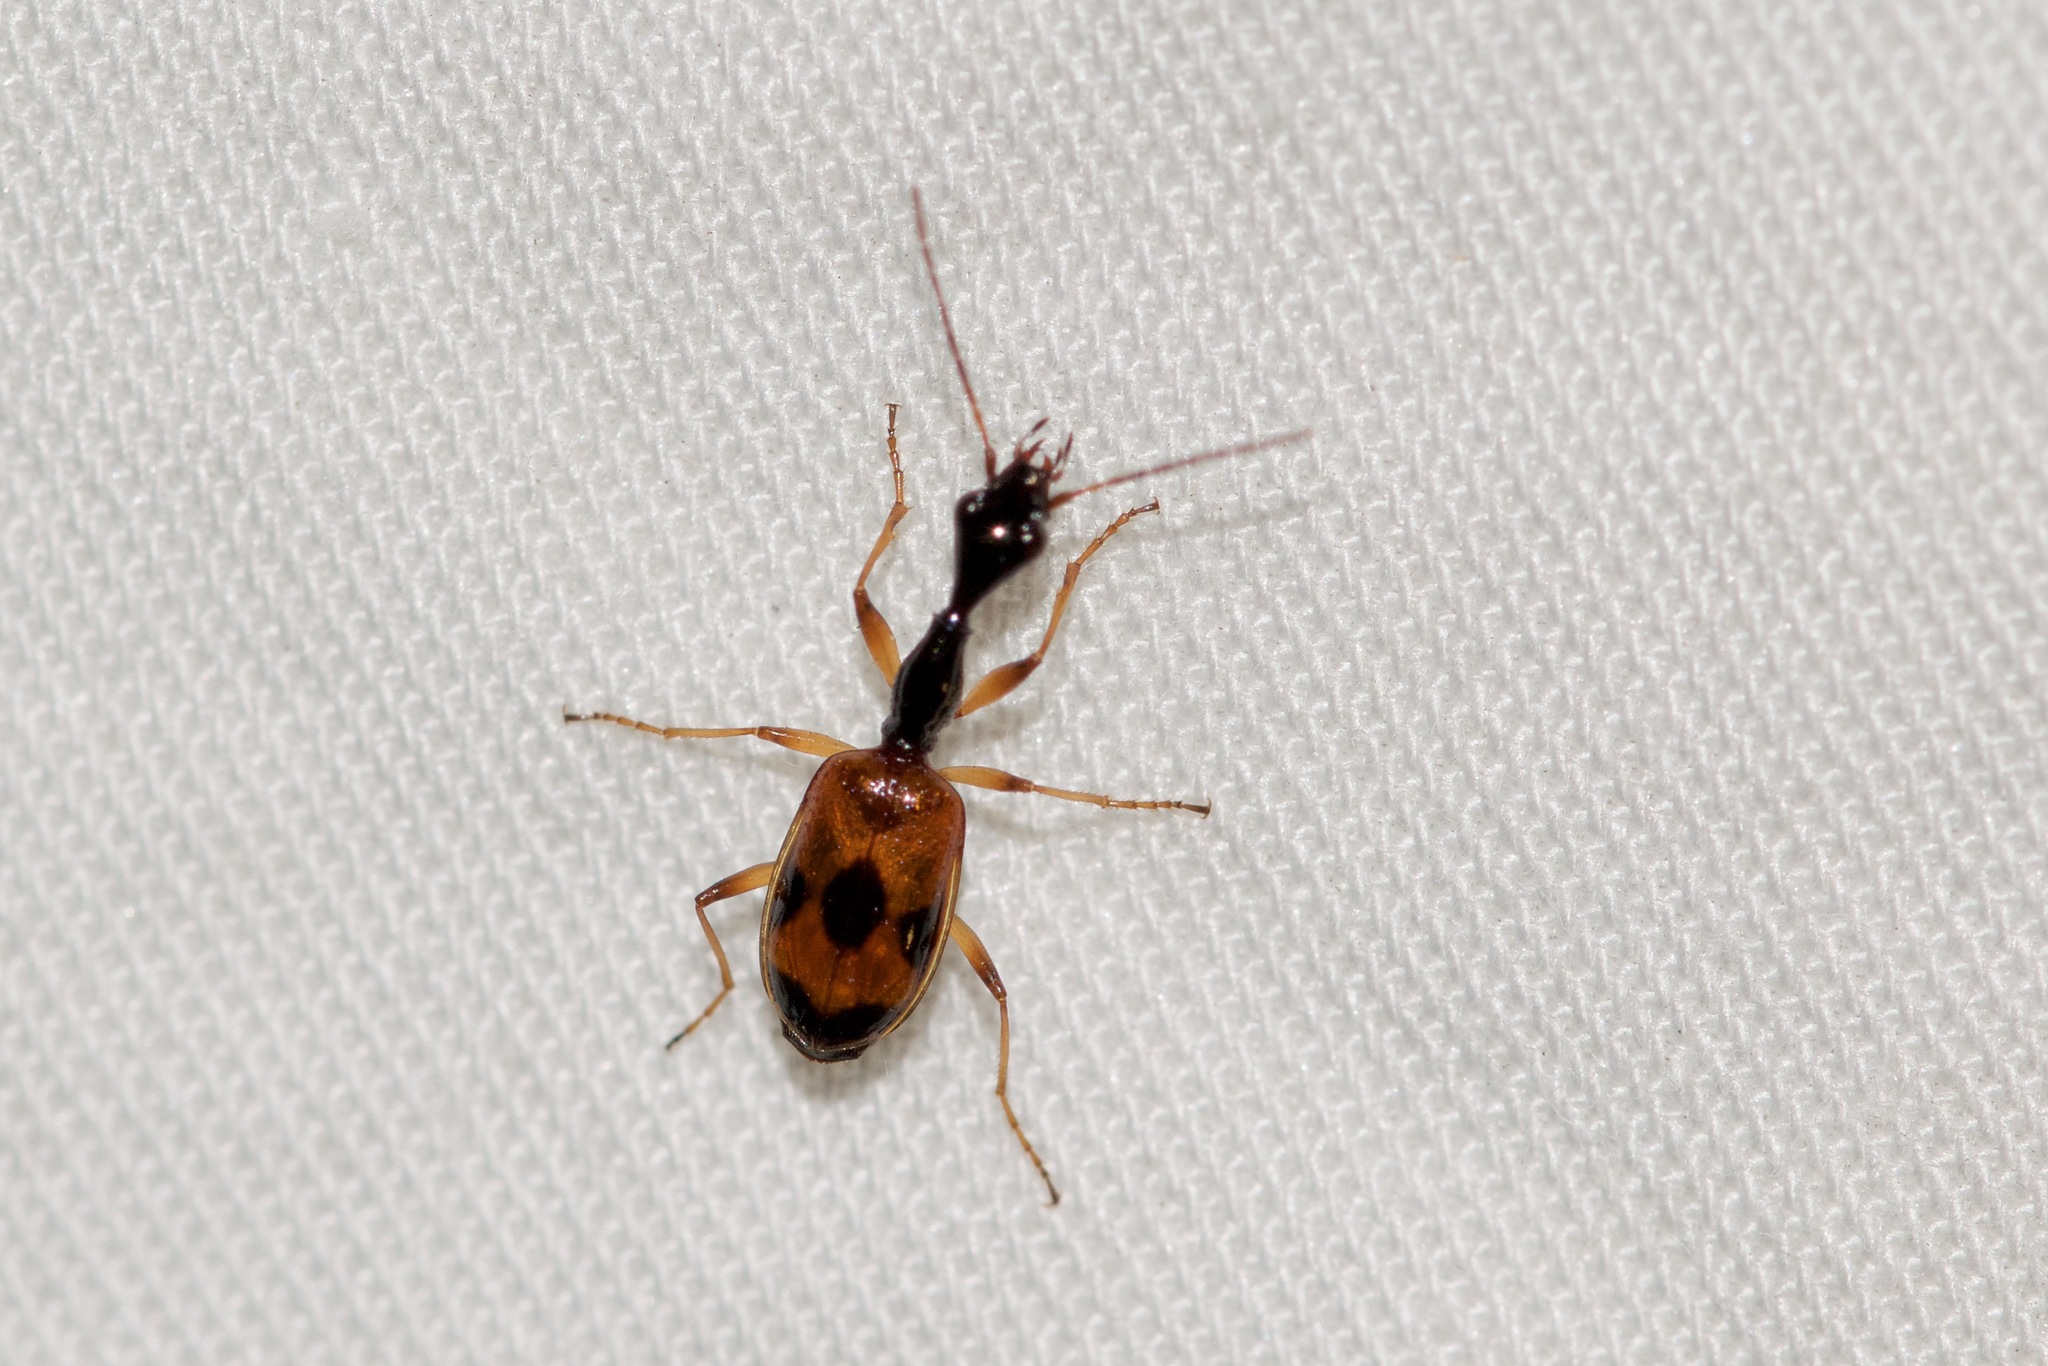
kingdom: Animalia
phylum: Arthropoda
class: Insecta
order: Coleoptera
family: Carabidae
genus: Colliuris
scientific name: Colliuris pensylvanica
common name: Long-necked ground beetle
